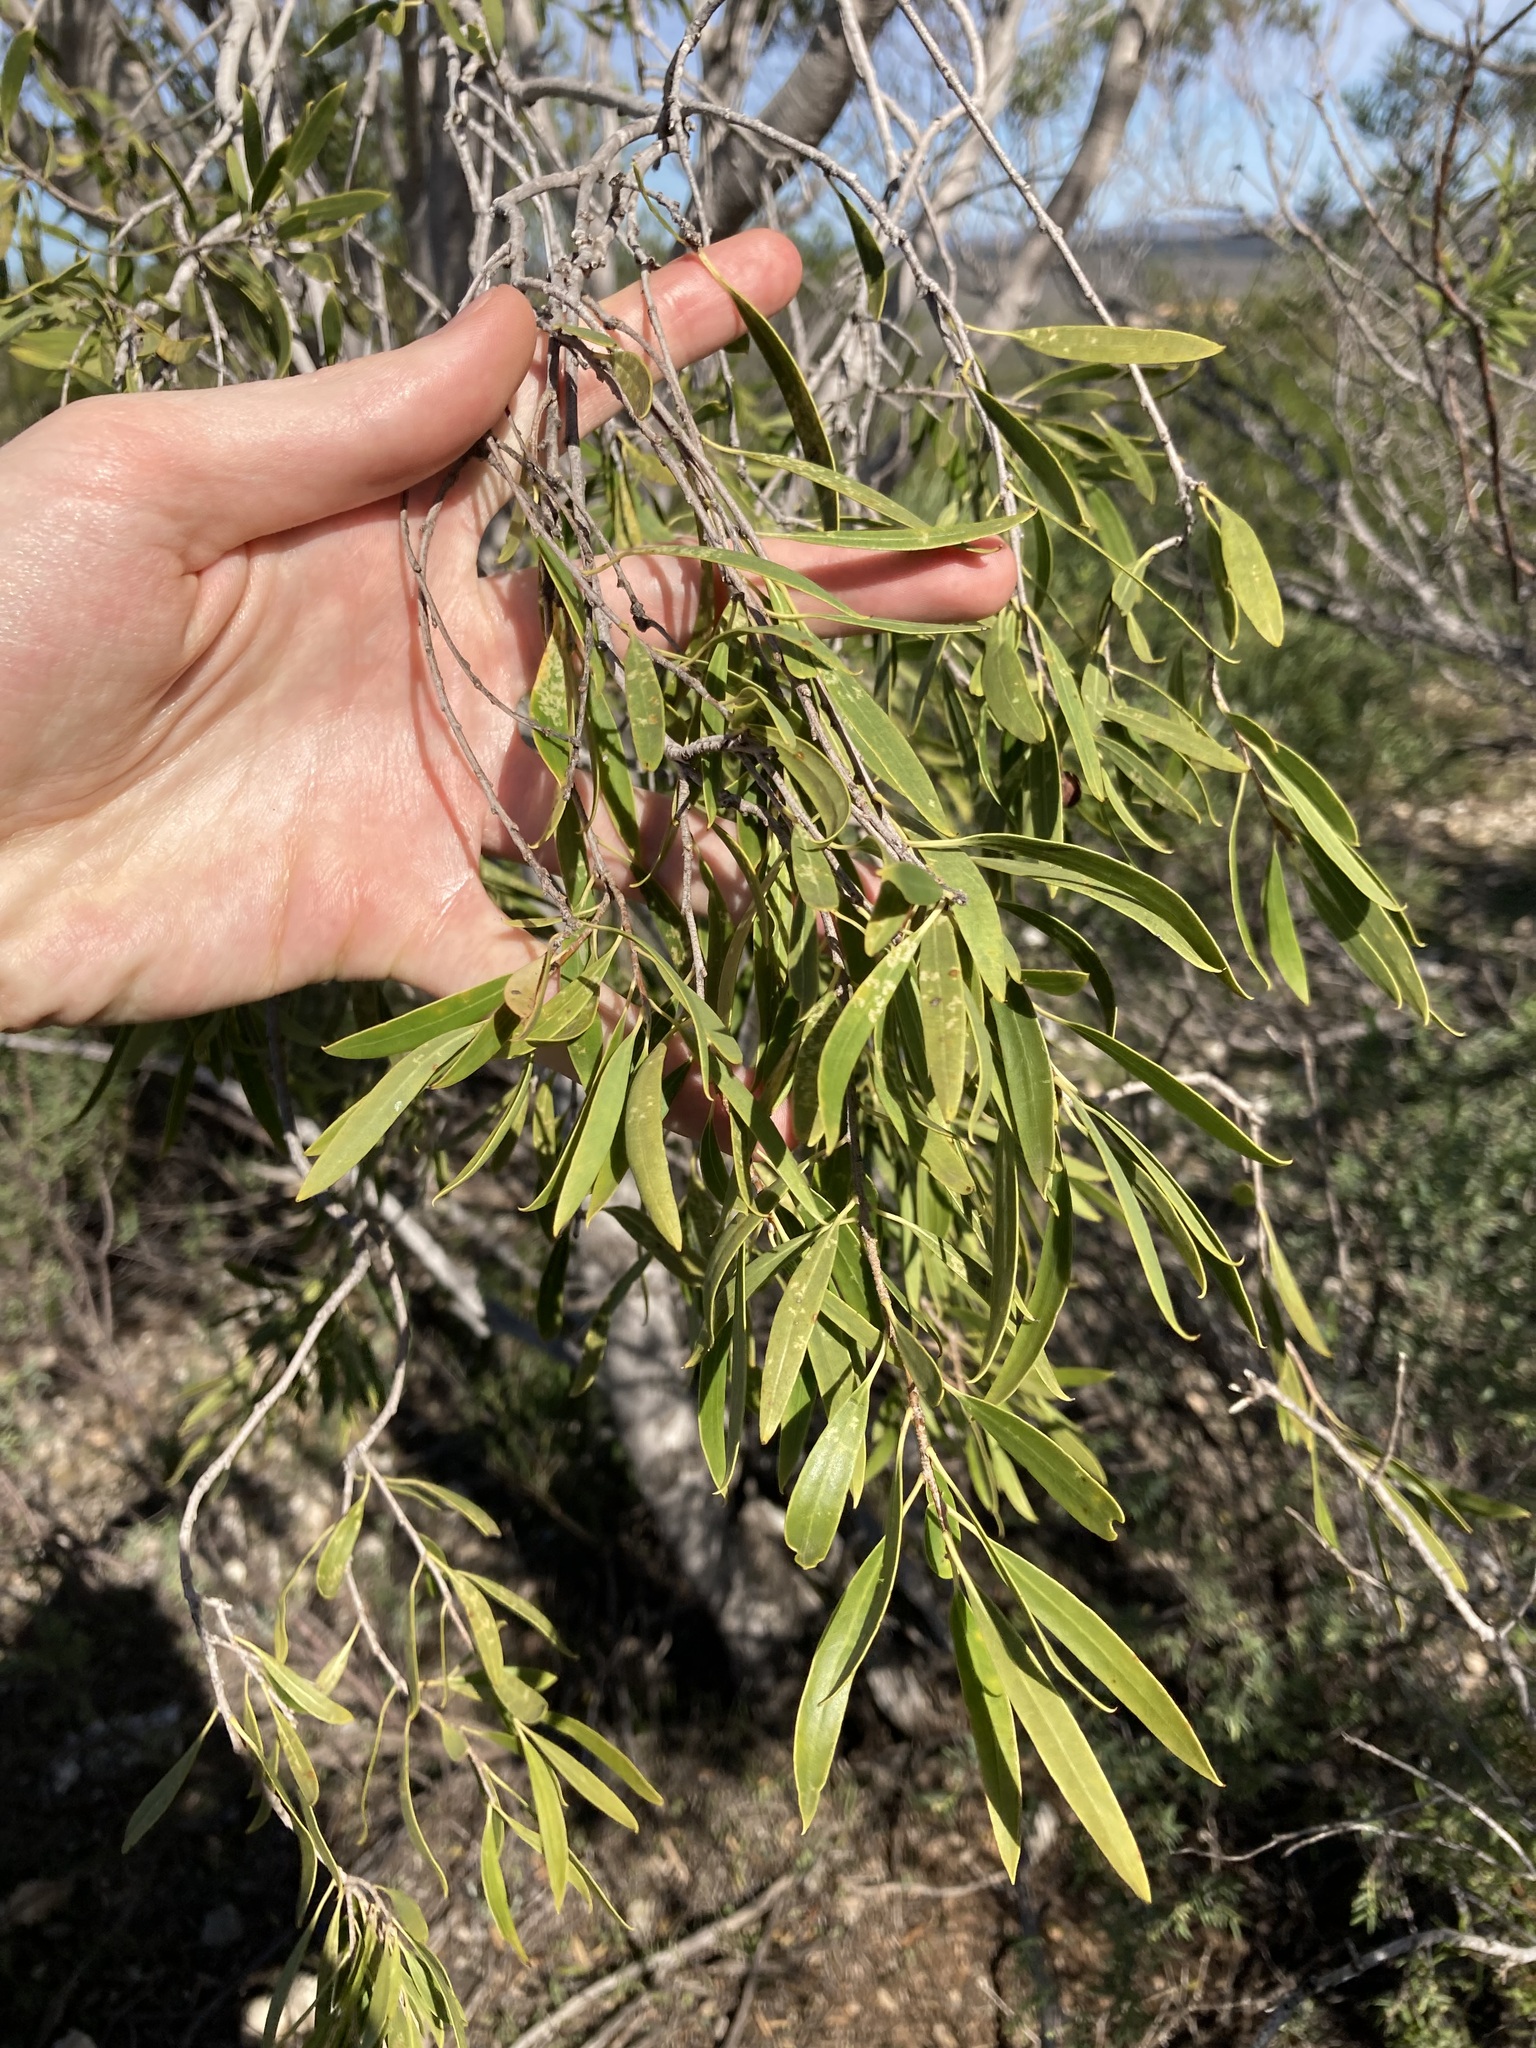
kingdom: Plantae
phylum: Tracheophyta
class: Magnoliopsida
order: Apiales
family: Pittosporaceae
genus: Pittosporum
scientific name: Pittosporum angustifolium
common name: Weeping pittosporum
